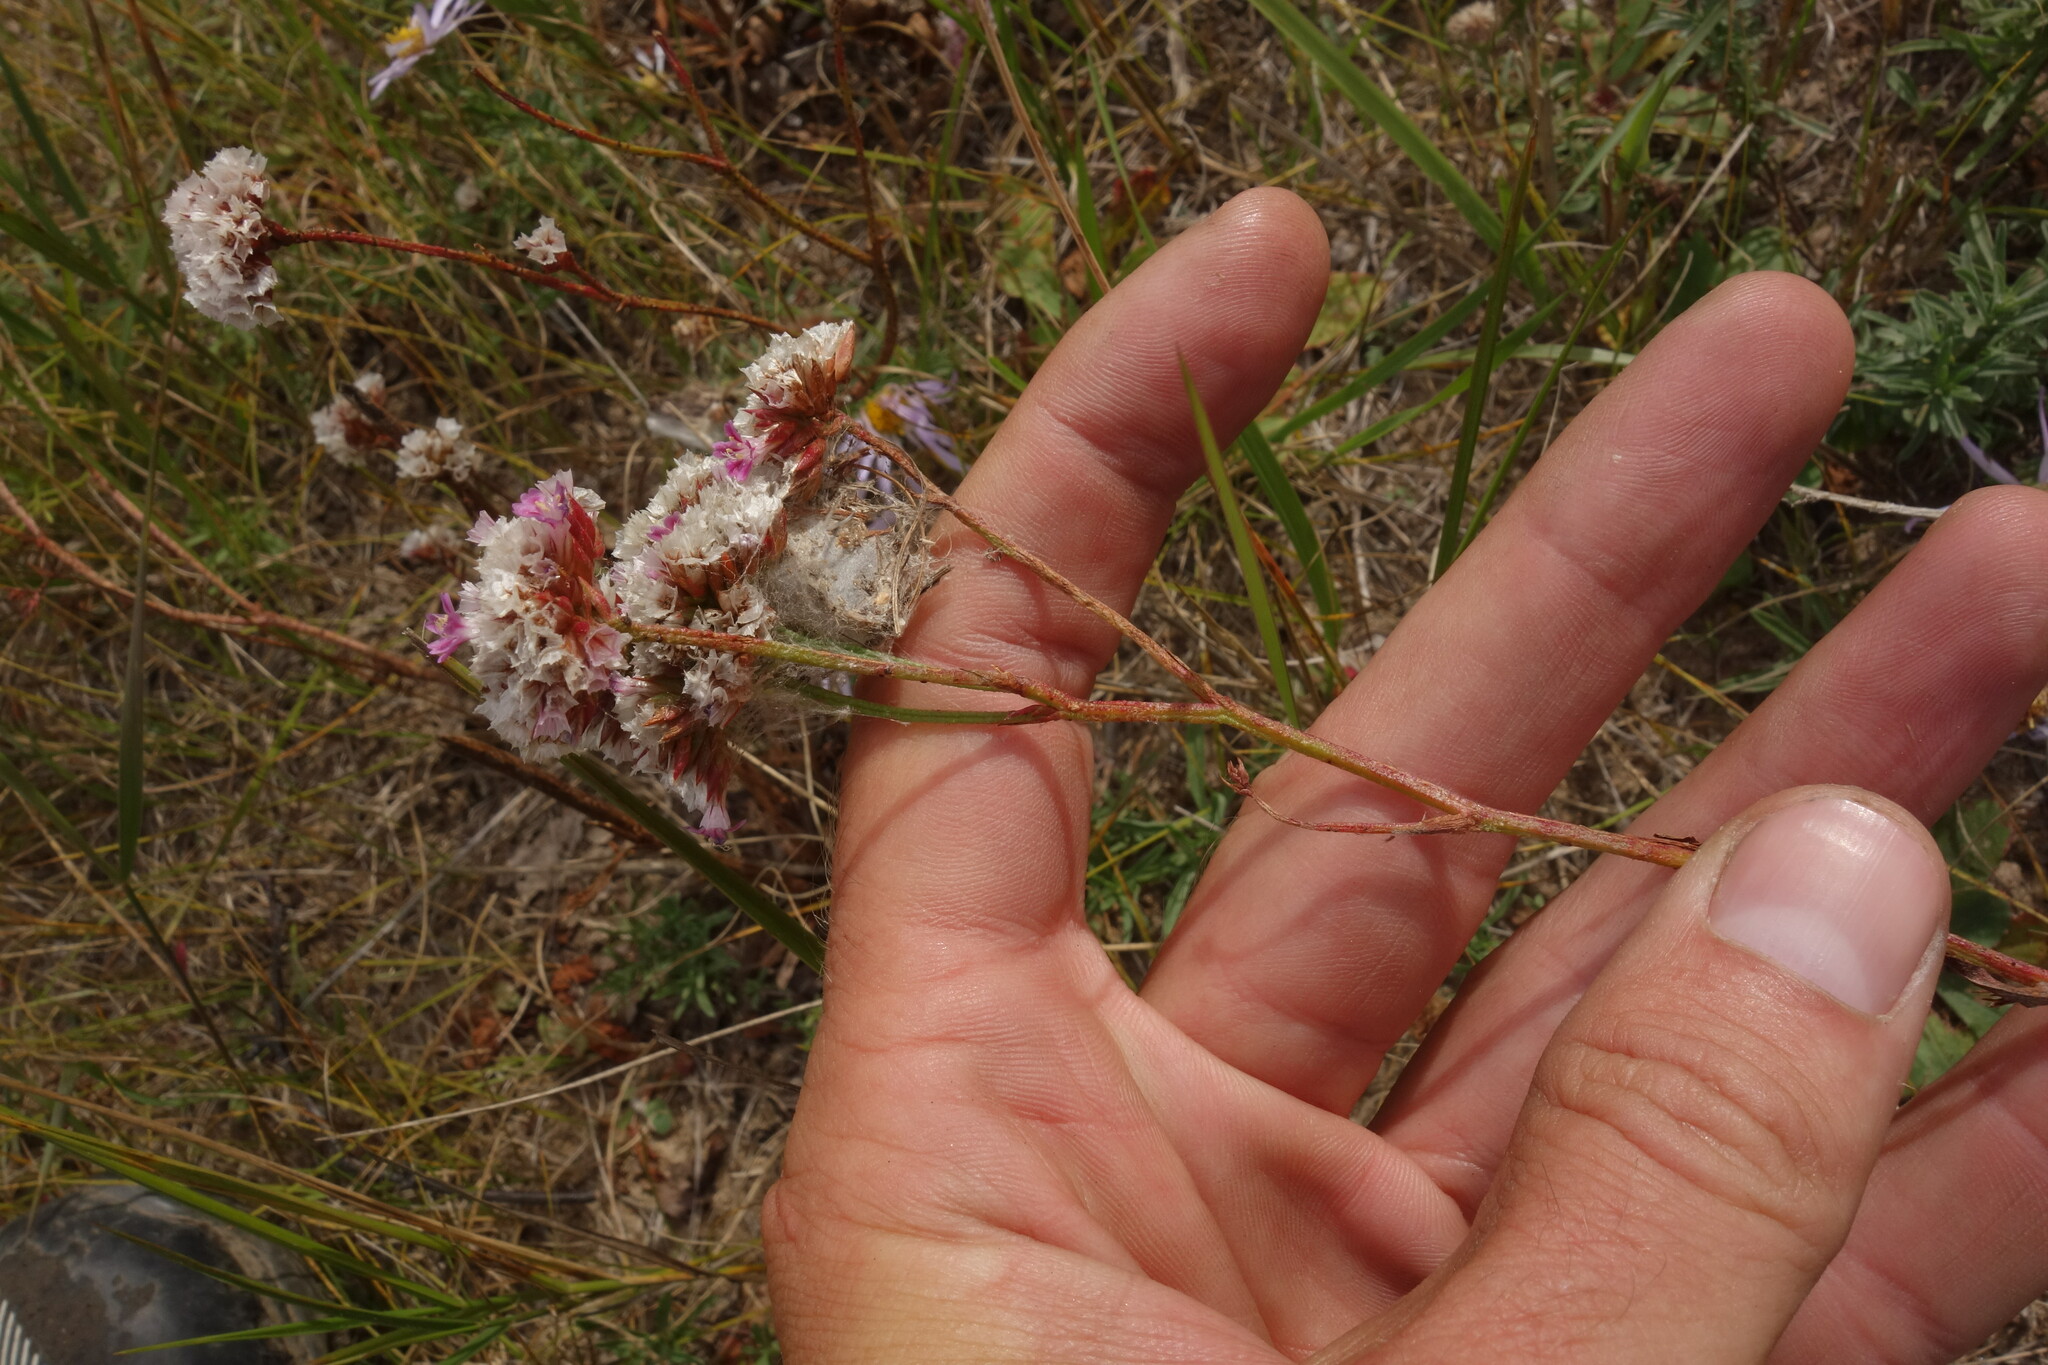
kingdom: Plantae
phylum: Tracheophyta
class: Magnoliopsida
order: Caryophyllales
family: Plumbaginaceae
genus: Limonium
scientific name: Limonium flexuosum
